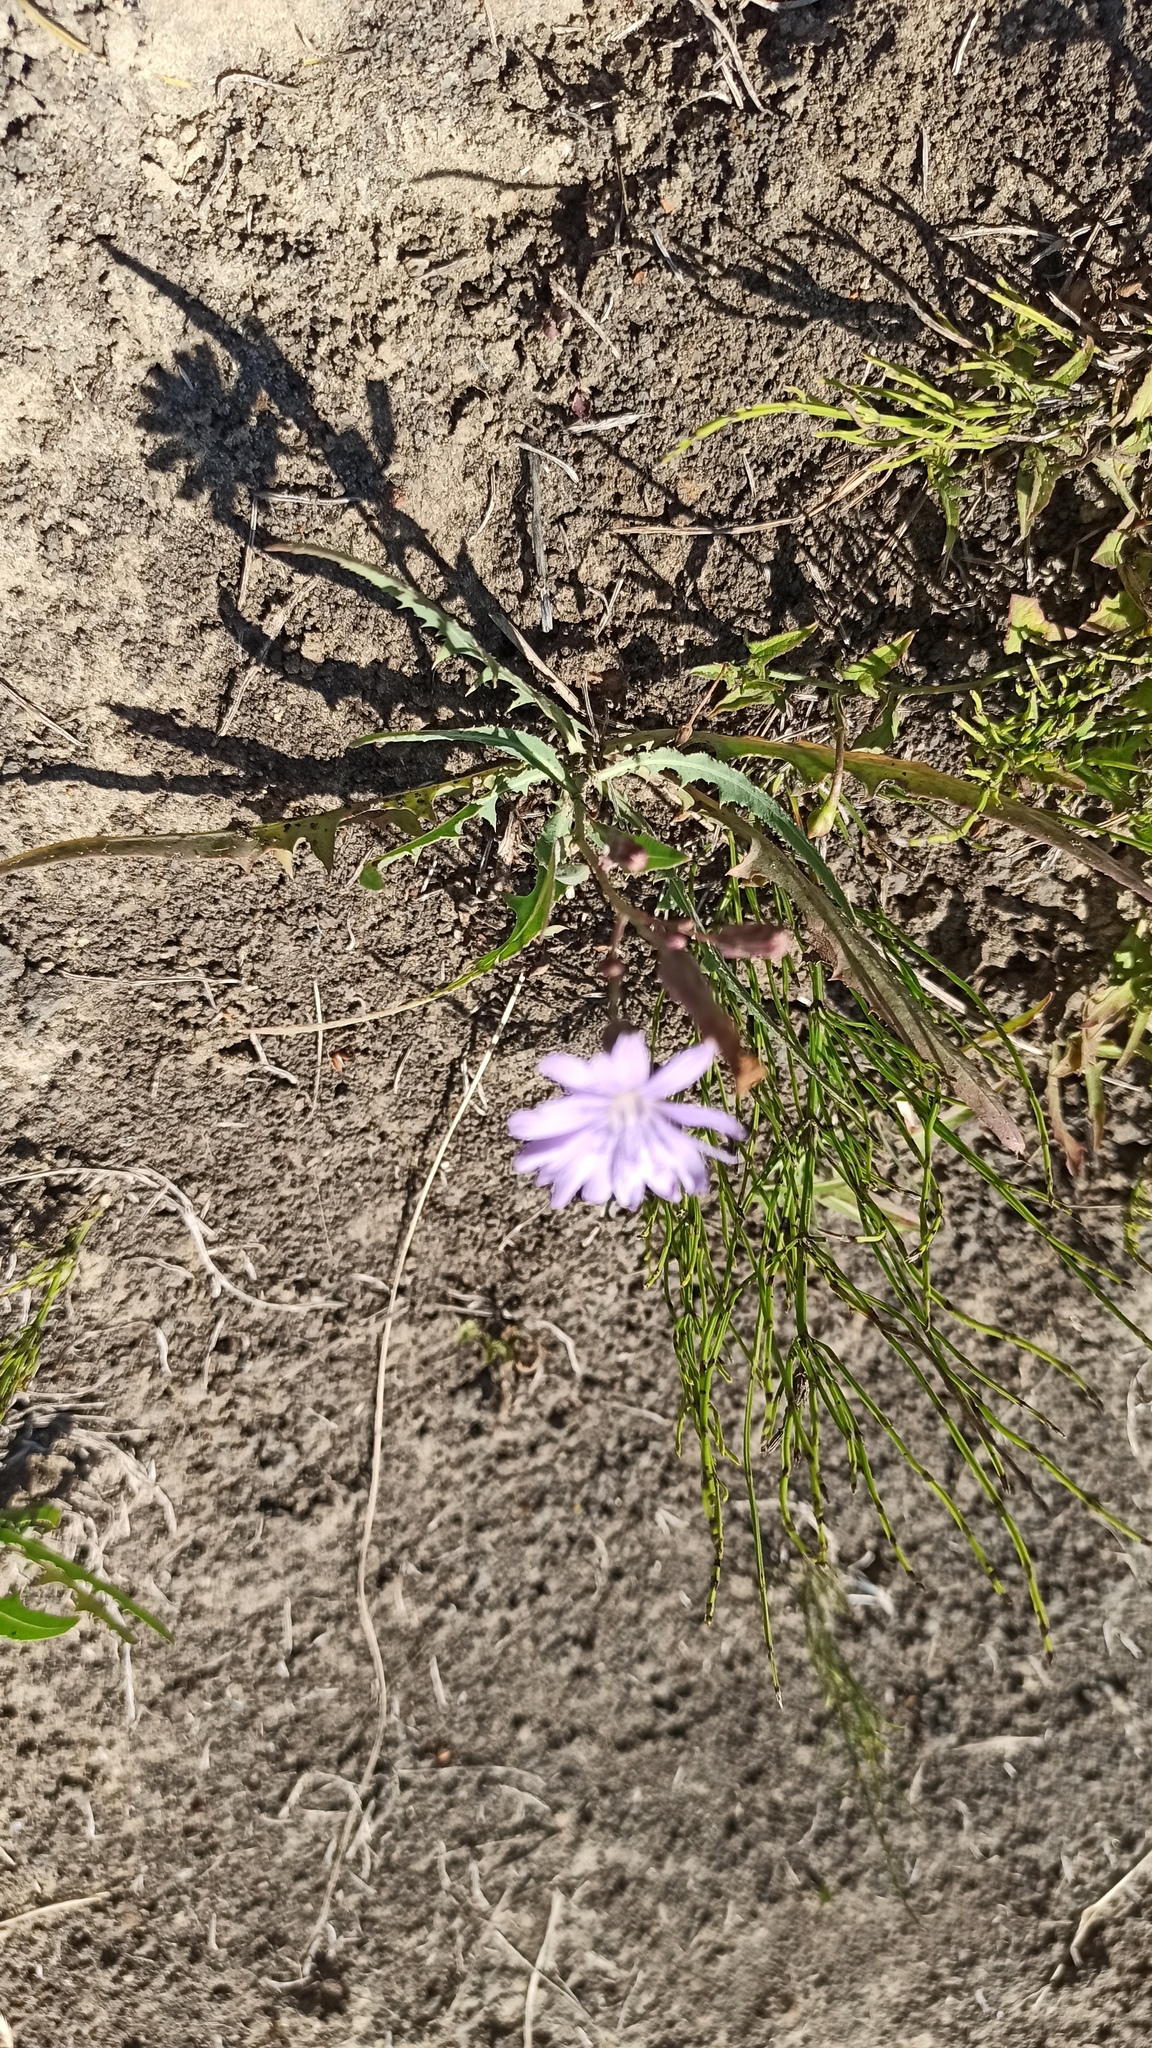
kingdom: Plantae
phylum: Tracheophyta
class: Magnoliopsida
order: Asterales
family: Asteraceae
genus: Lactuca
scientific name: Lactuca tatarica
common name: Blue lettuce
